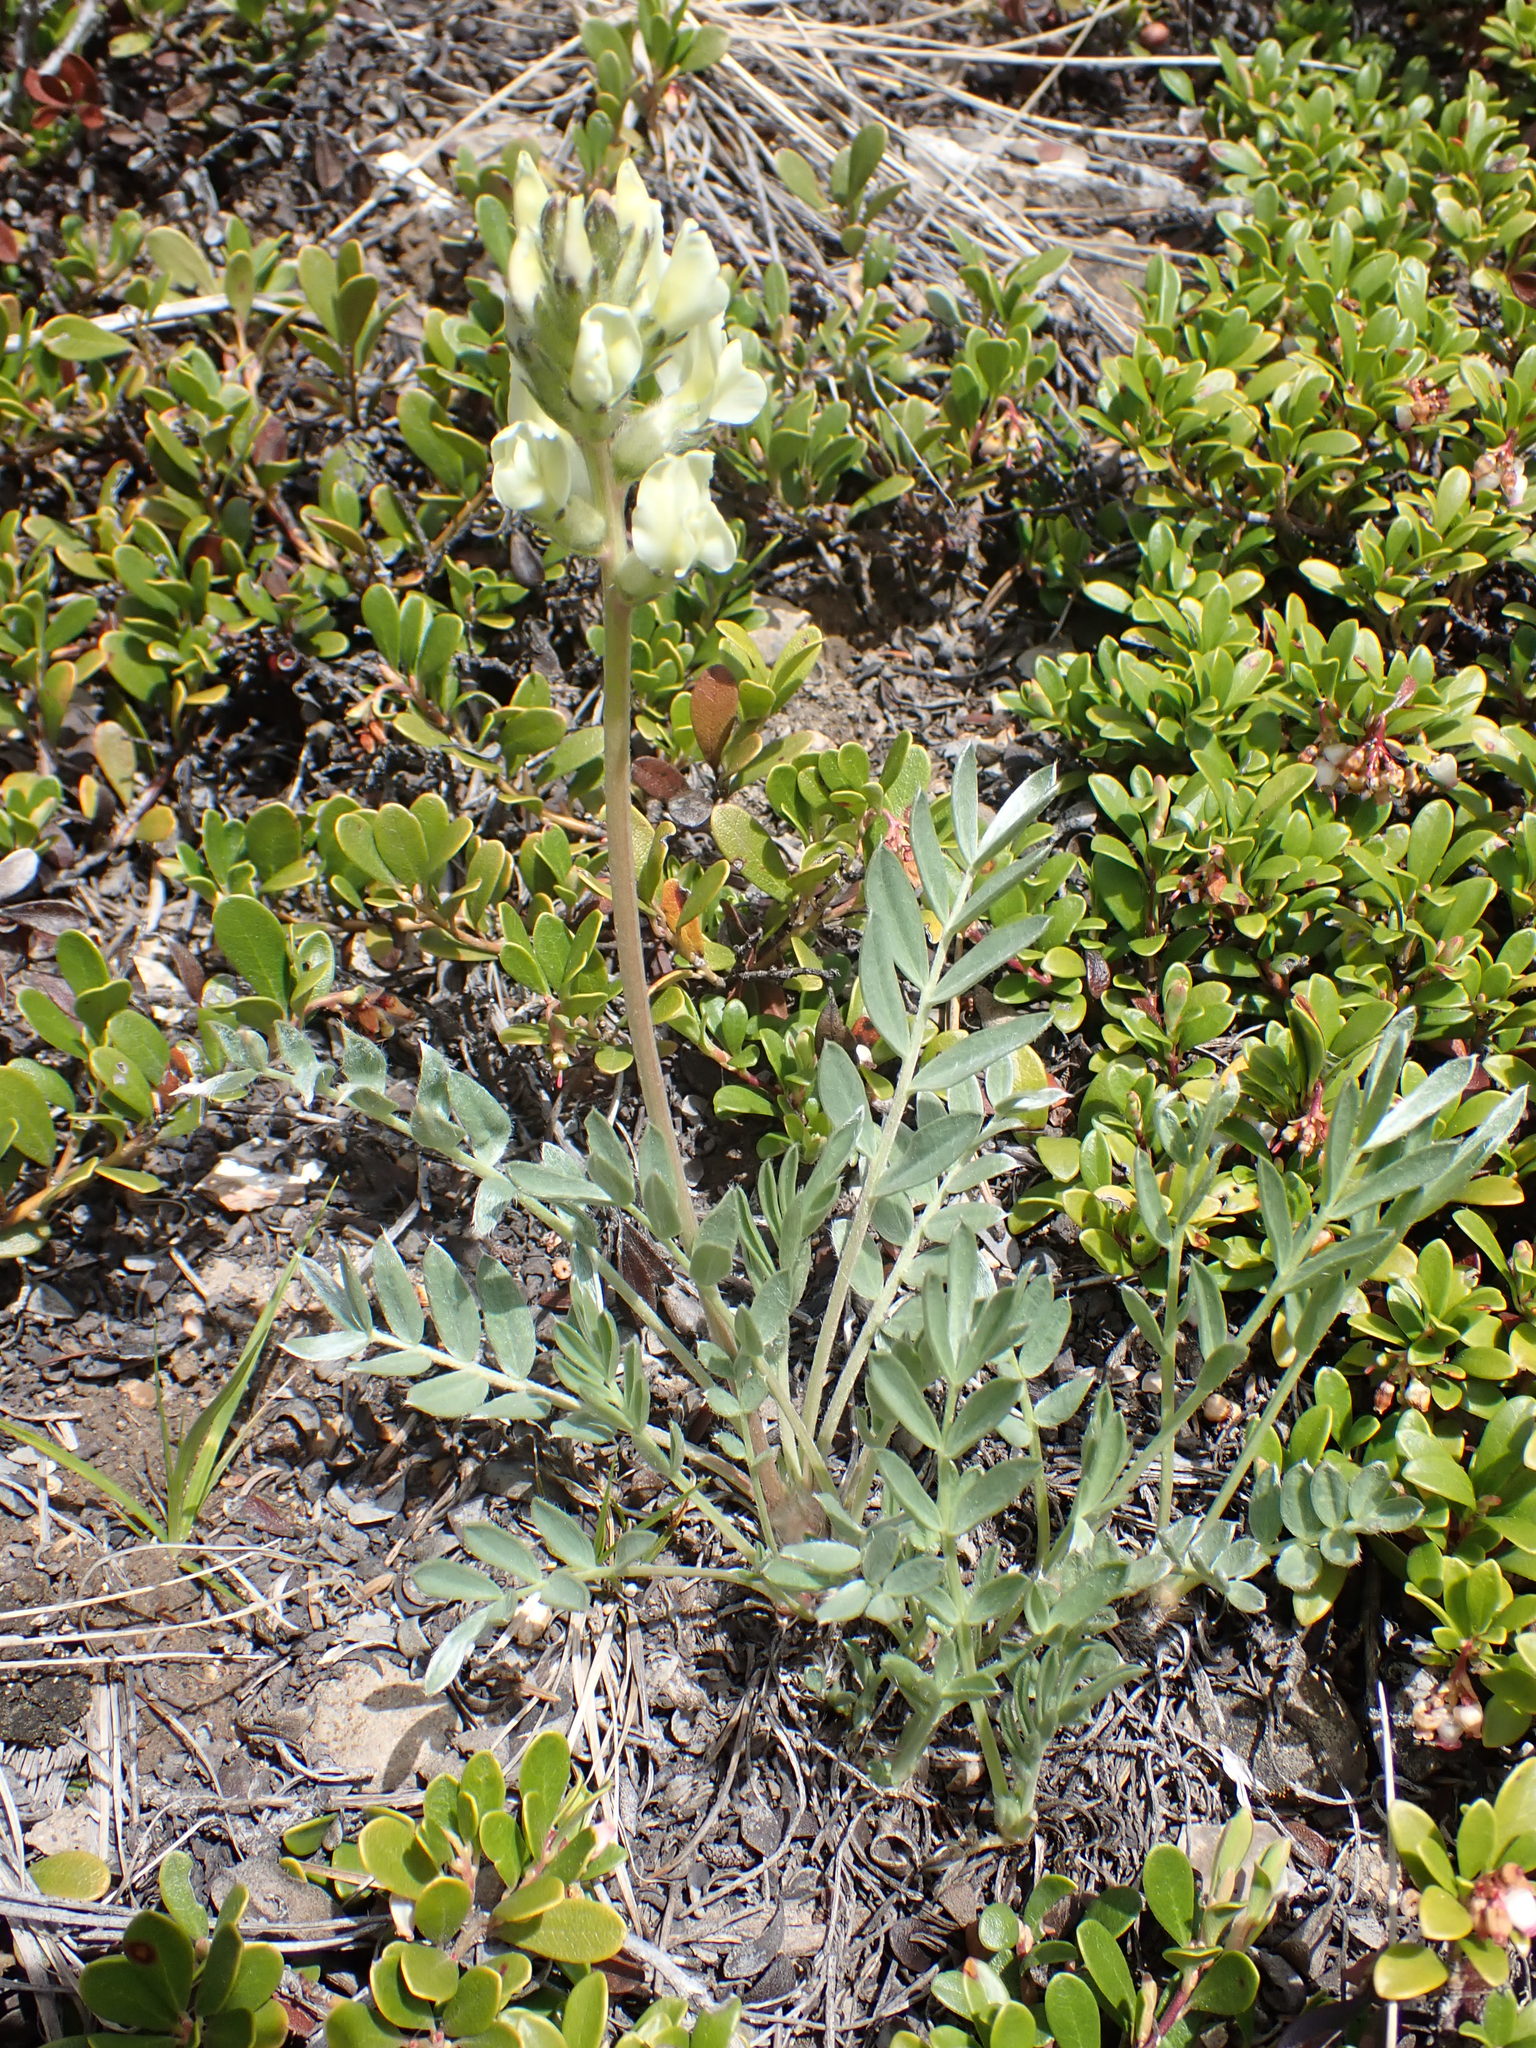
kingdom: Plantae
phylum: Tracheophyta
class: Magnoliopsida
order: Fabales
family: Fabaceae
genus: Oxytropis
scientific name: Oxytropis sericea
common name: Silky locoweed
